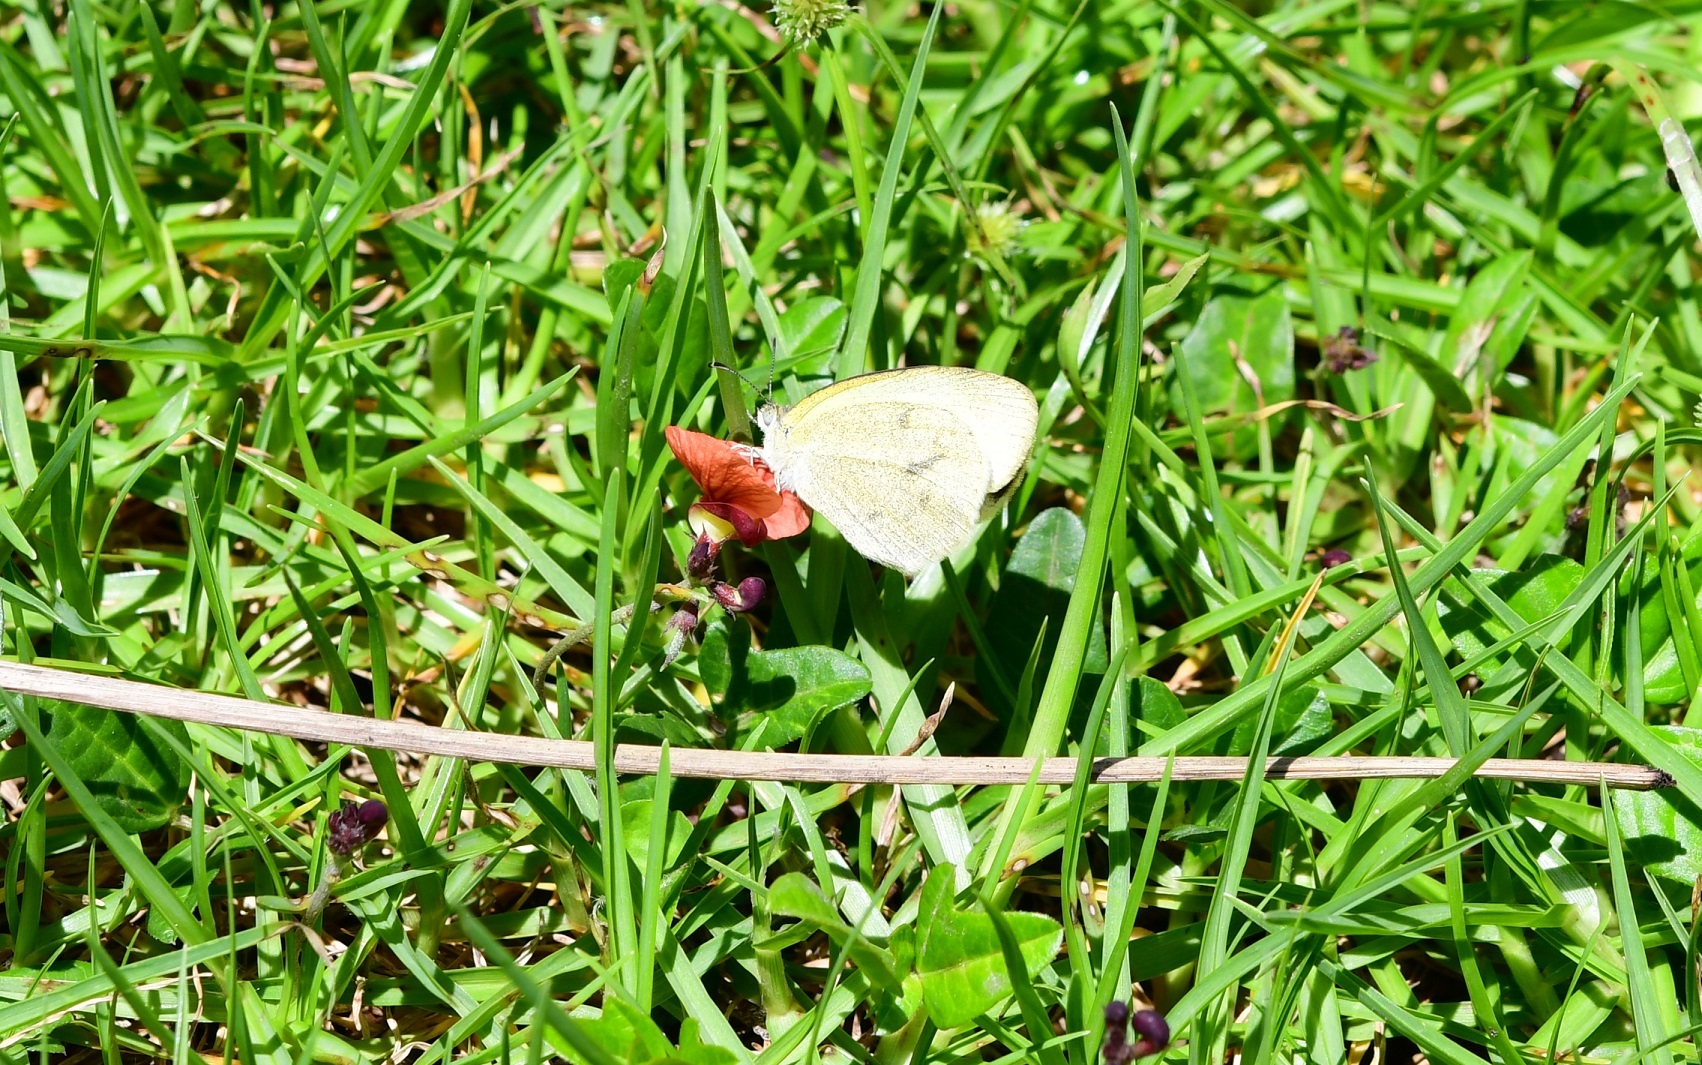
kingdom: Animalia
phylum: Arthropoda
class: Insecta
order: Lepidoptera
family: Pieridae
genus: Eurema
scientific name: Eurema daira
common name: Barred sulphur
